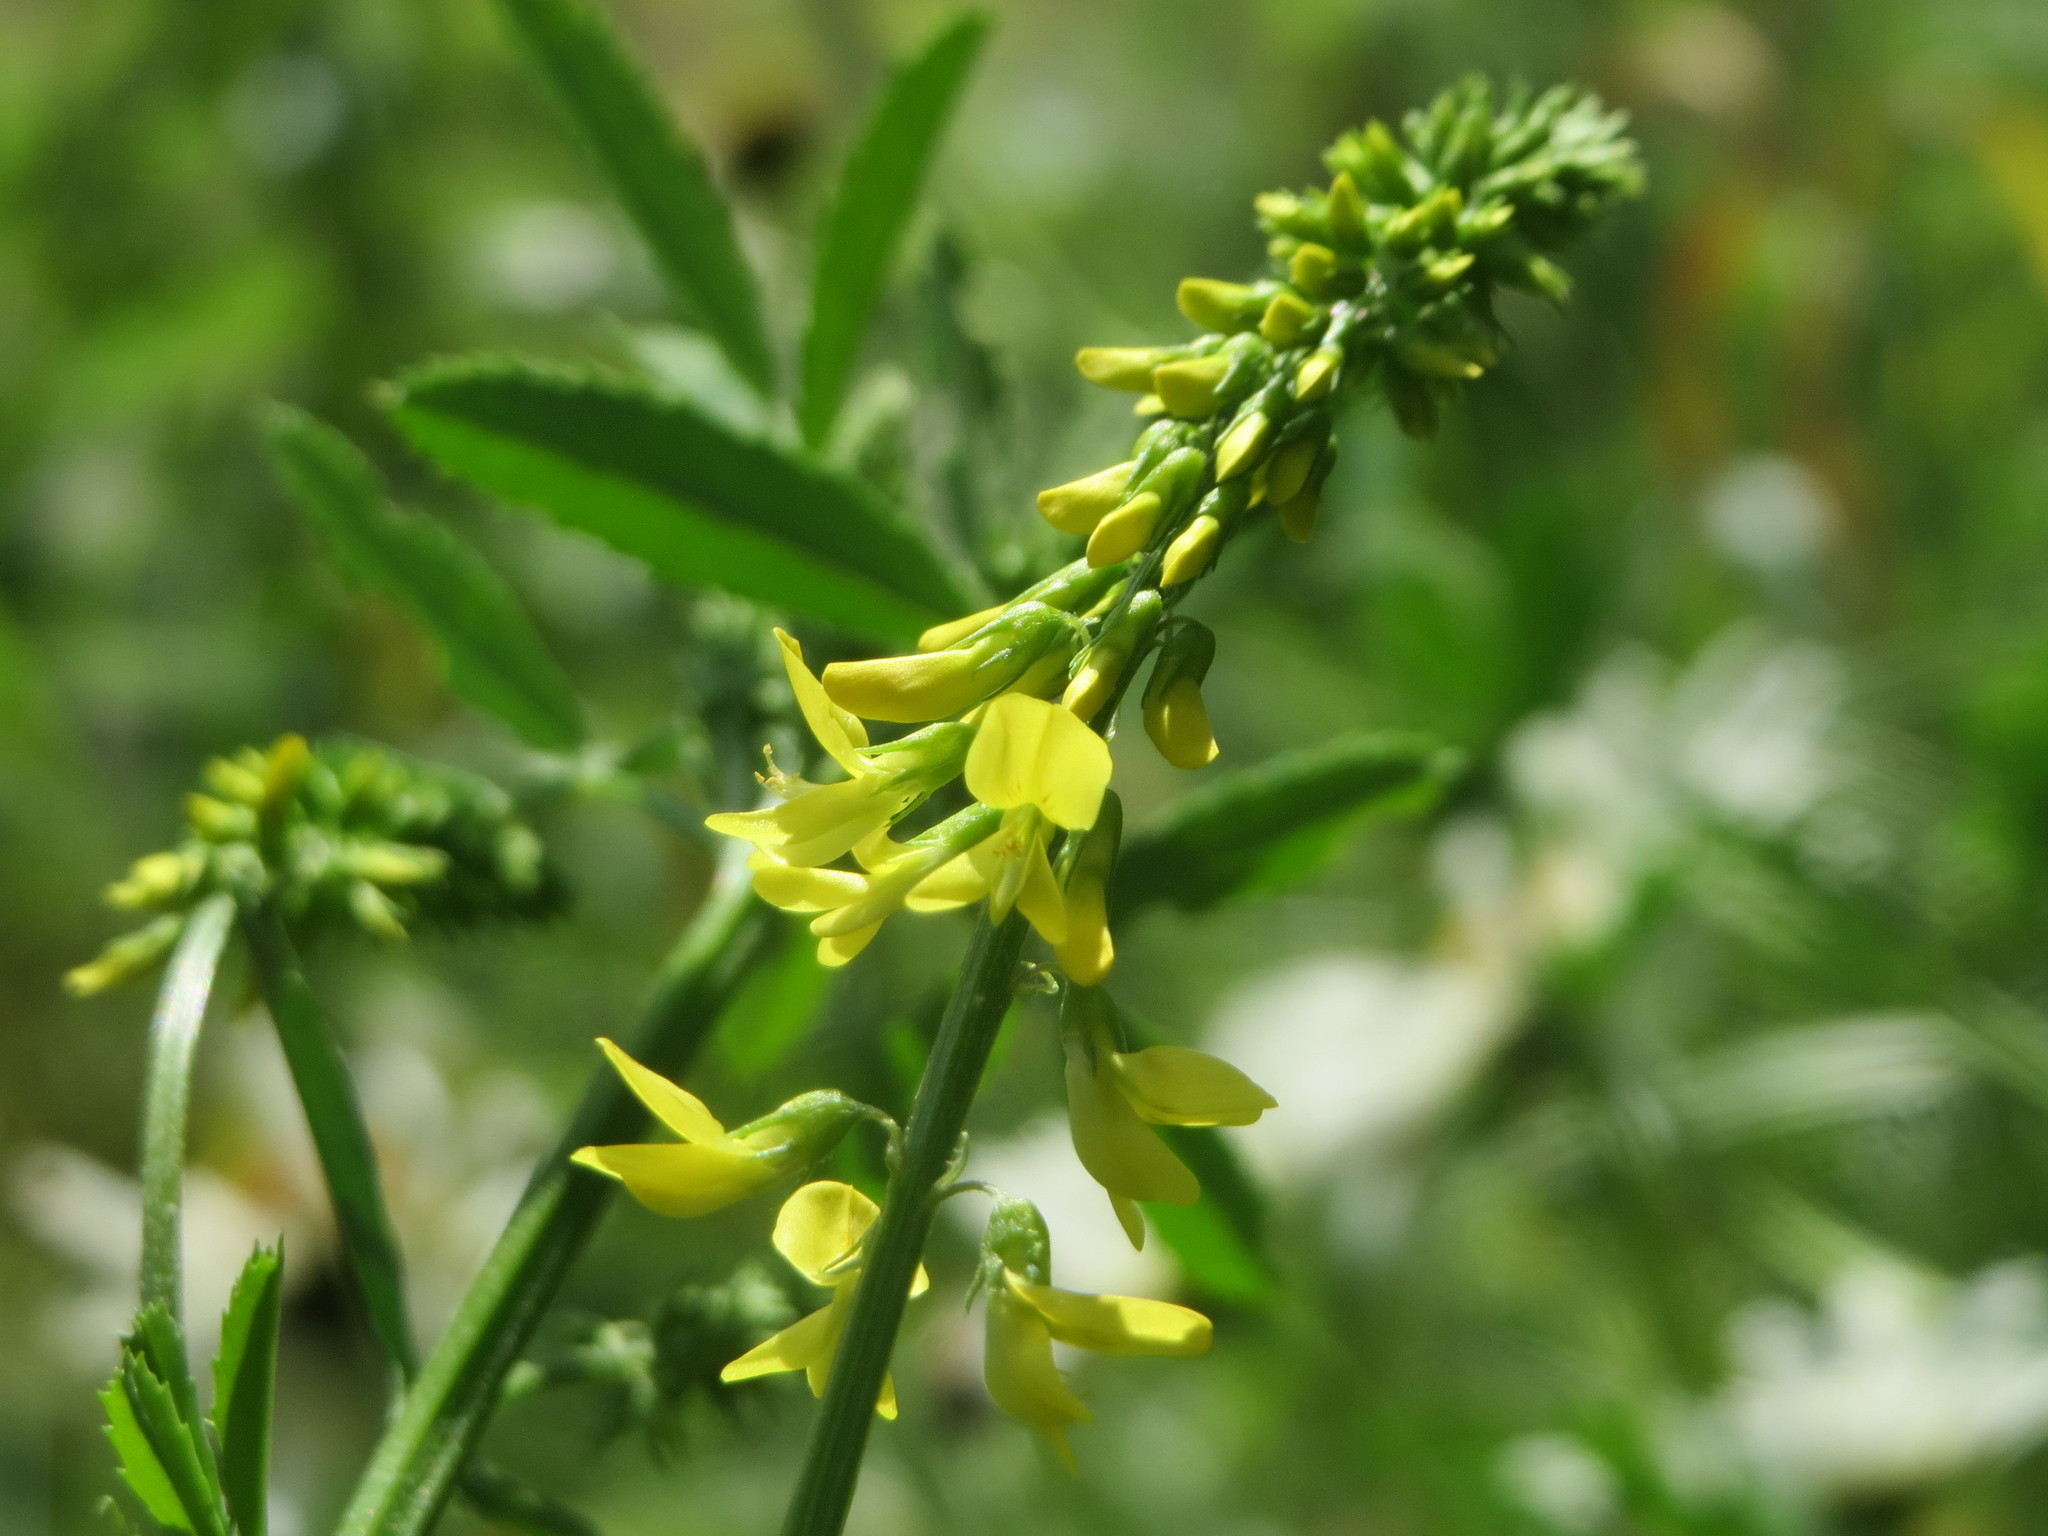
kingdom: Plantae
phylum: Tracheophyta
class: Magnoliopsida
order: Fabales
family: Fabaceae
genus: Melilotus
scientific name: Melilotus officinalis
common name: Sweetclover
